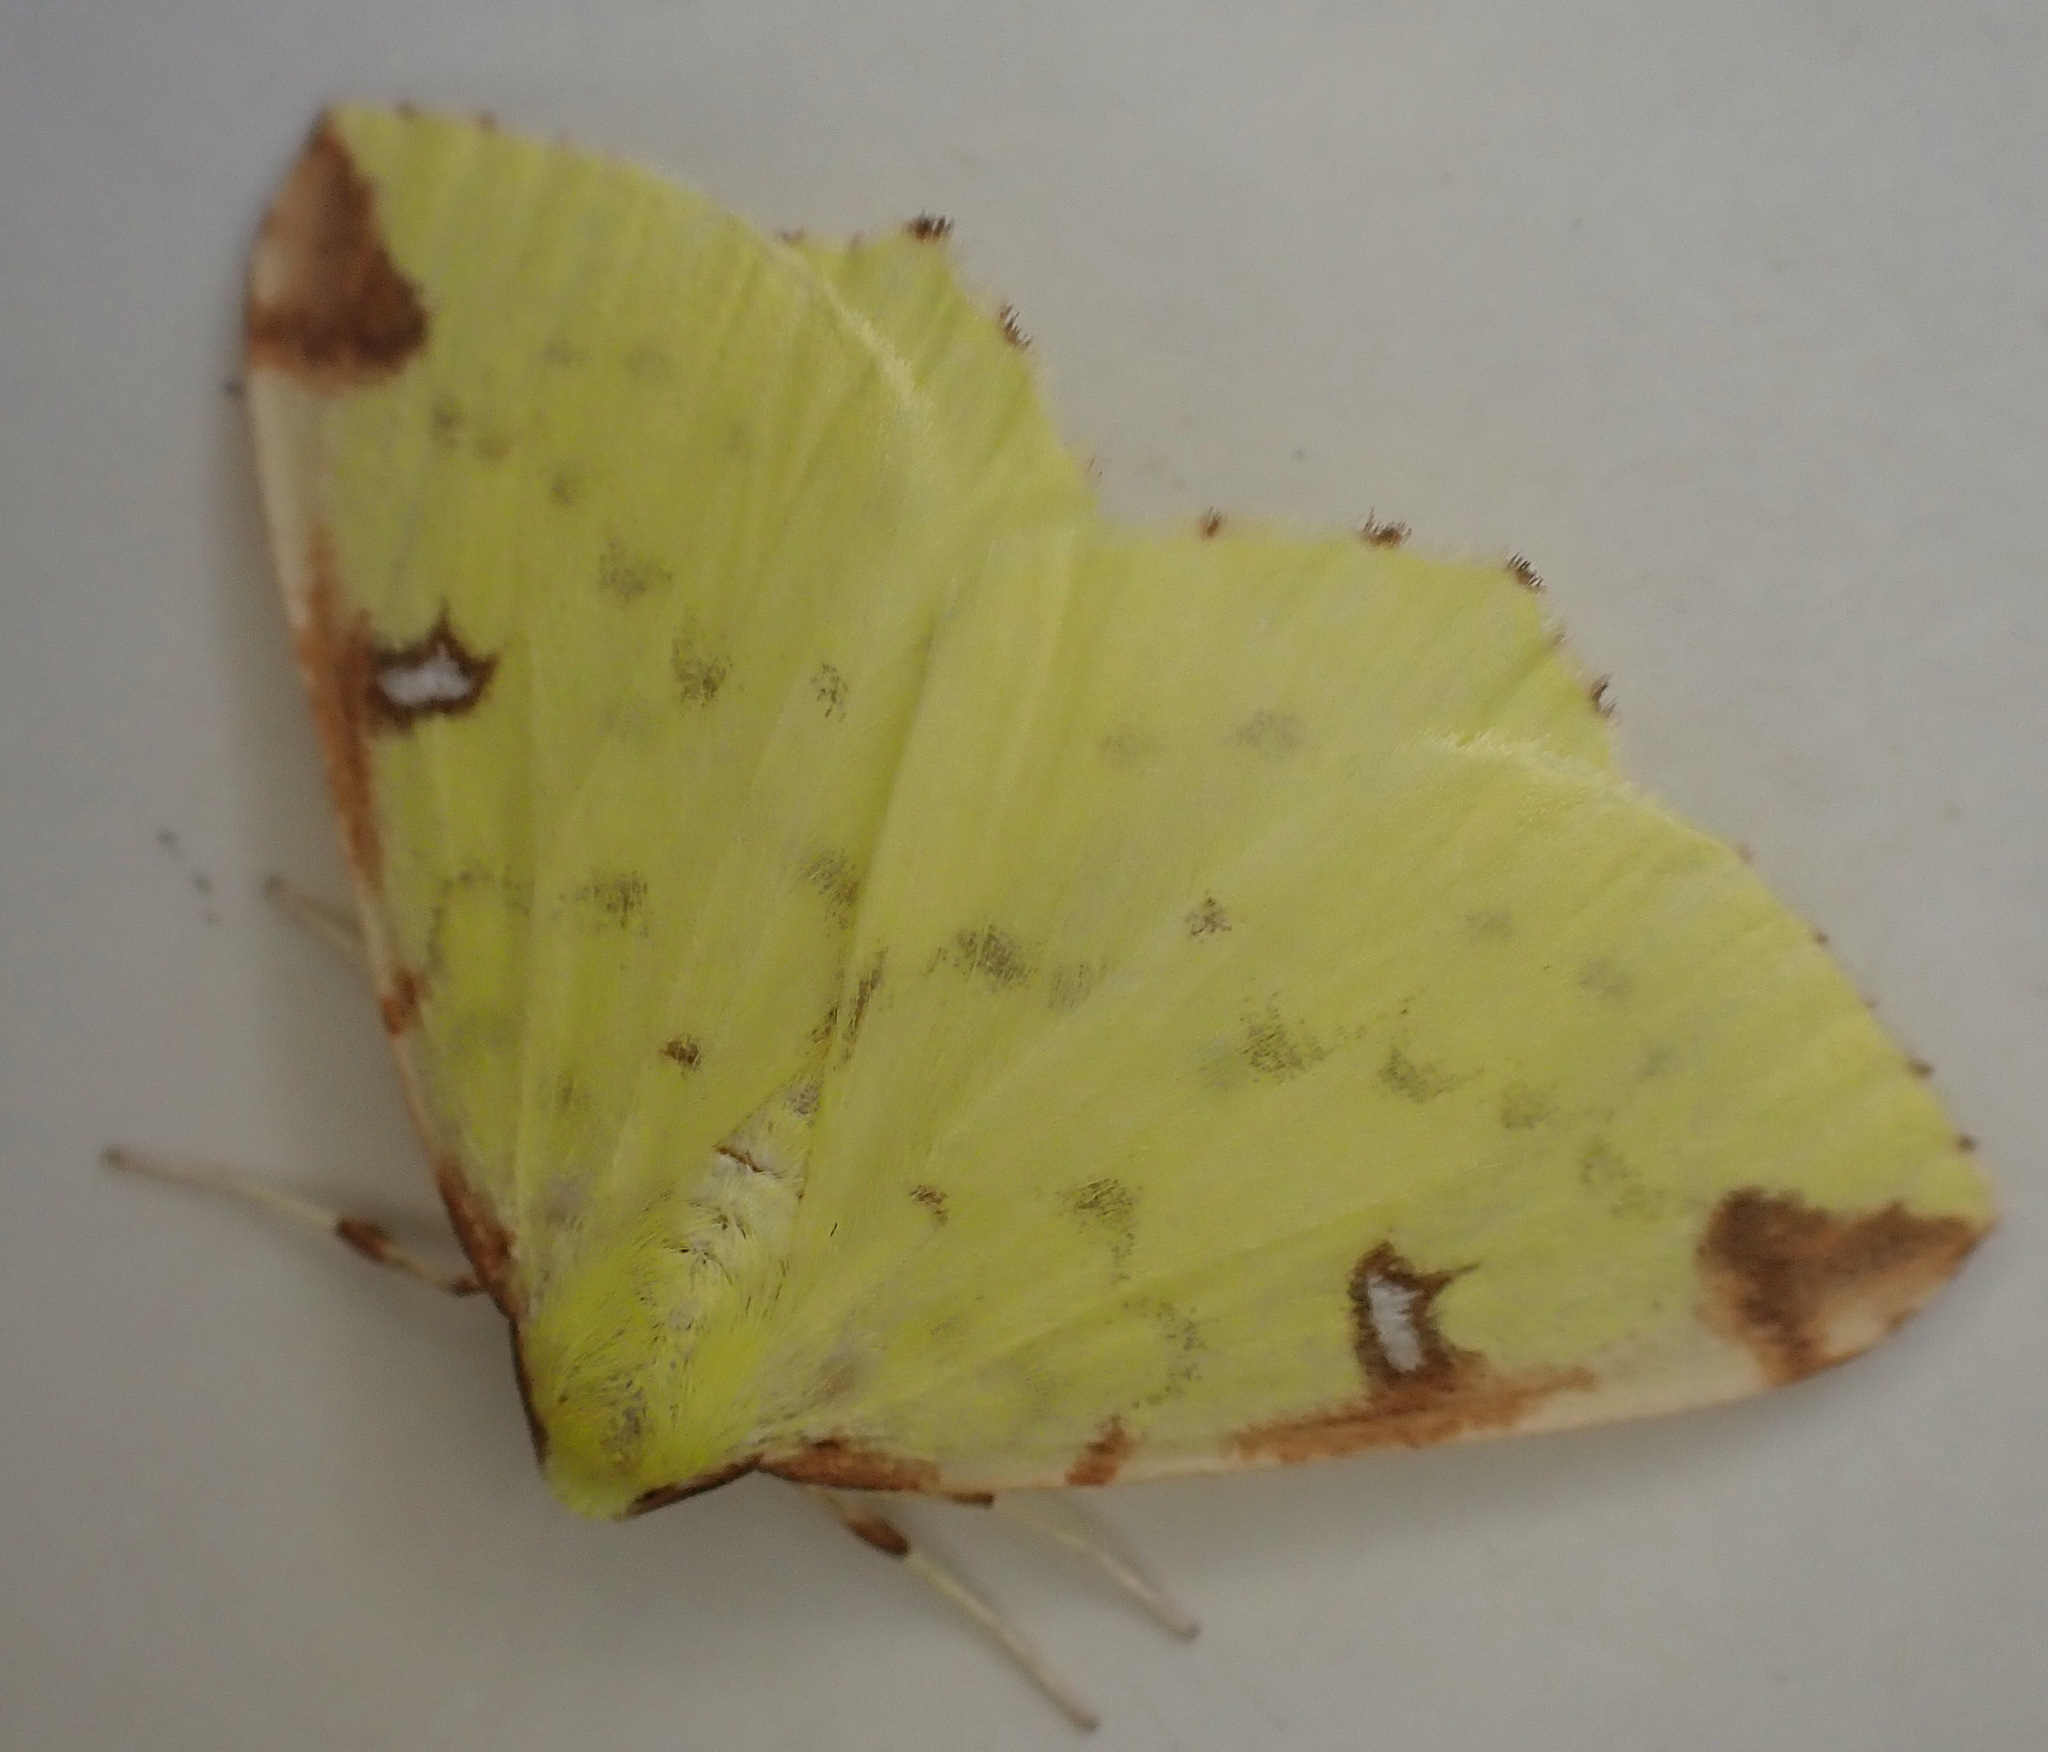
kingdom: Animalia
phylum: Arthropoda
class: Insecta
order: Lepidoptera
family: Geometridae
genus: Opisthograptis
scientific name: Opisthograptis luteolata
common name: Brimstone moth
